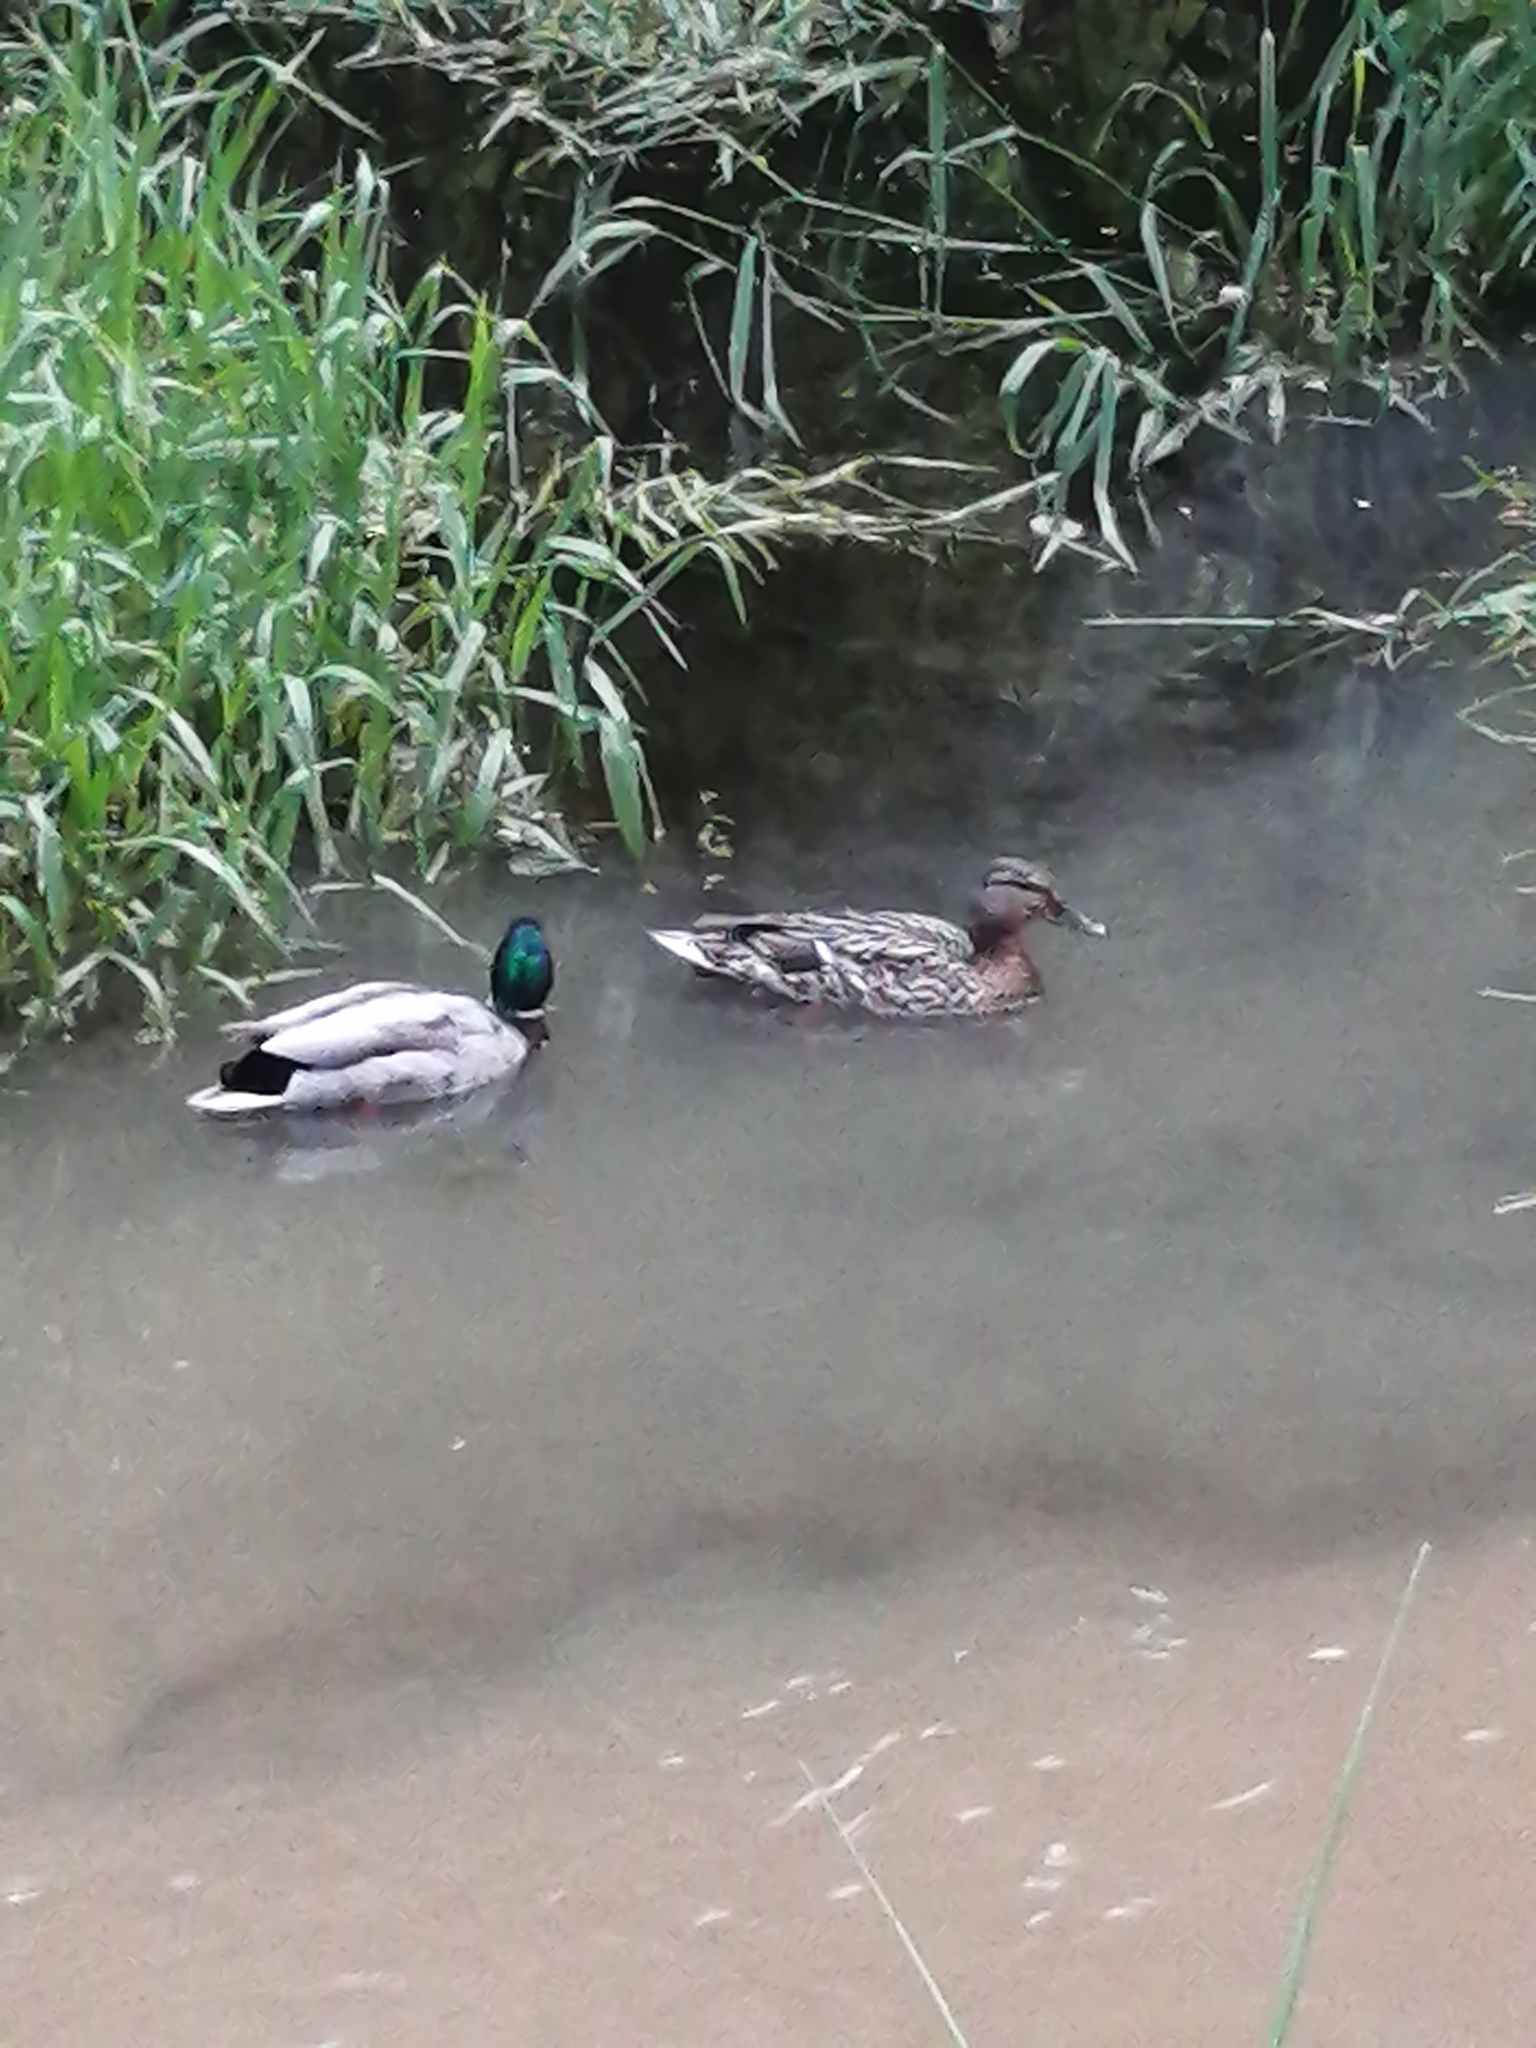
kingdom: Animalia
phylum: Chordata
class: Aves
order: Anseriformes
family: Anatidae
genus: Anas
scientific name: Anas platyrhynchos
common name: Mallard
